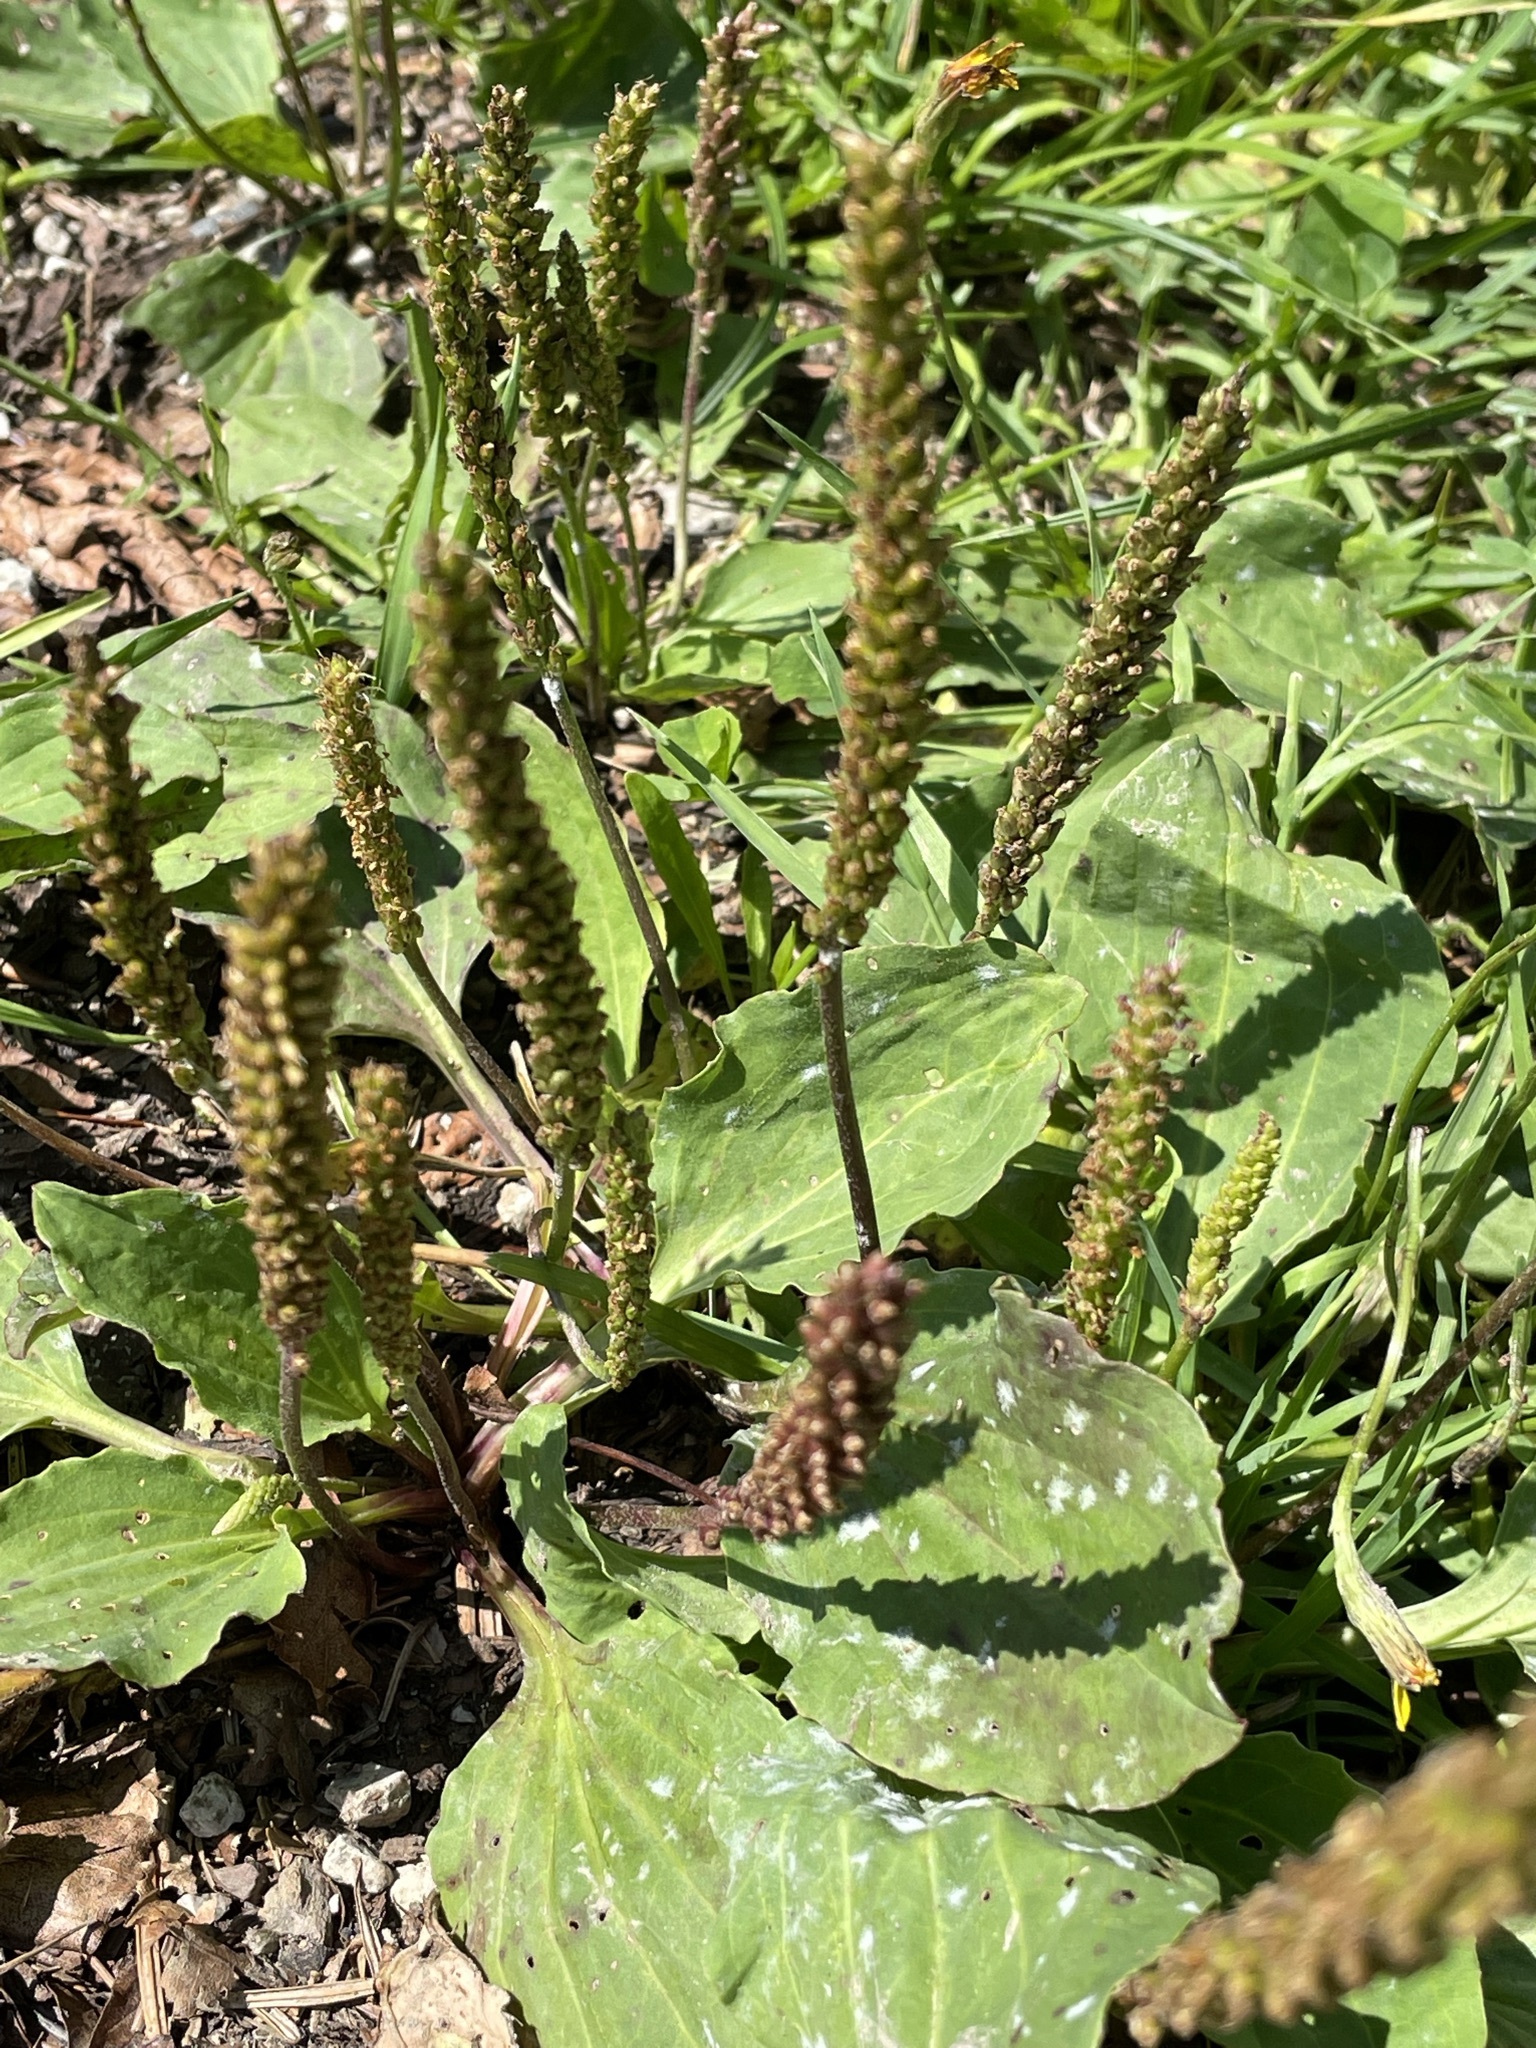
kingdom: Plantae
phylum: Tracheophyta
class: Magnoliopsida
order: Lamiales
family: Plantaginaceae
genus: Plantago
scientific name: Plantago major
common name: Common plantain
